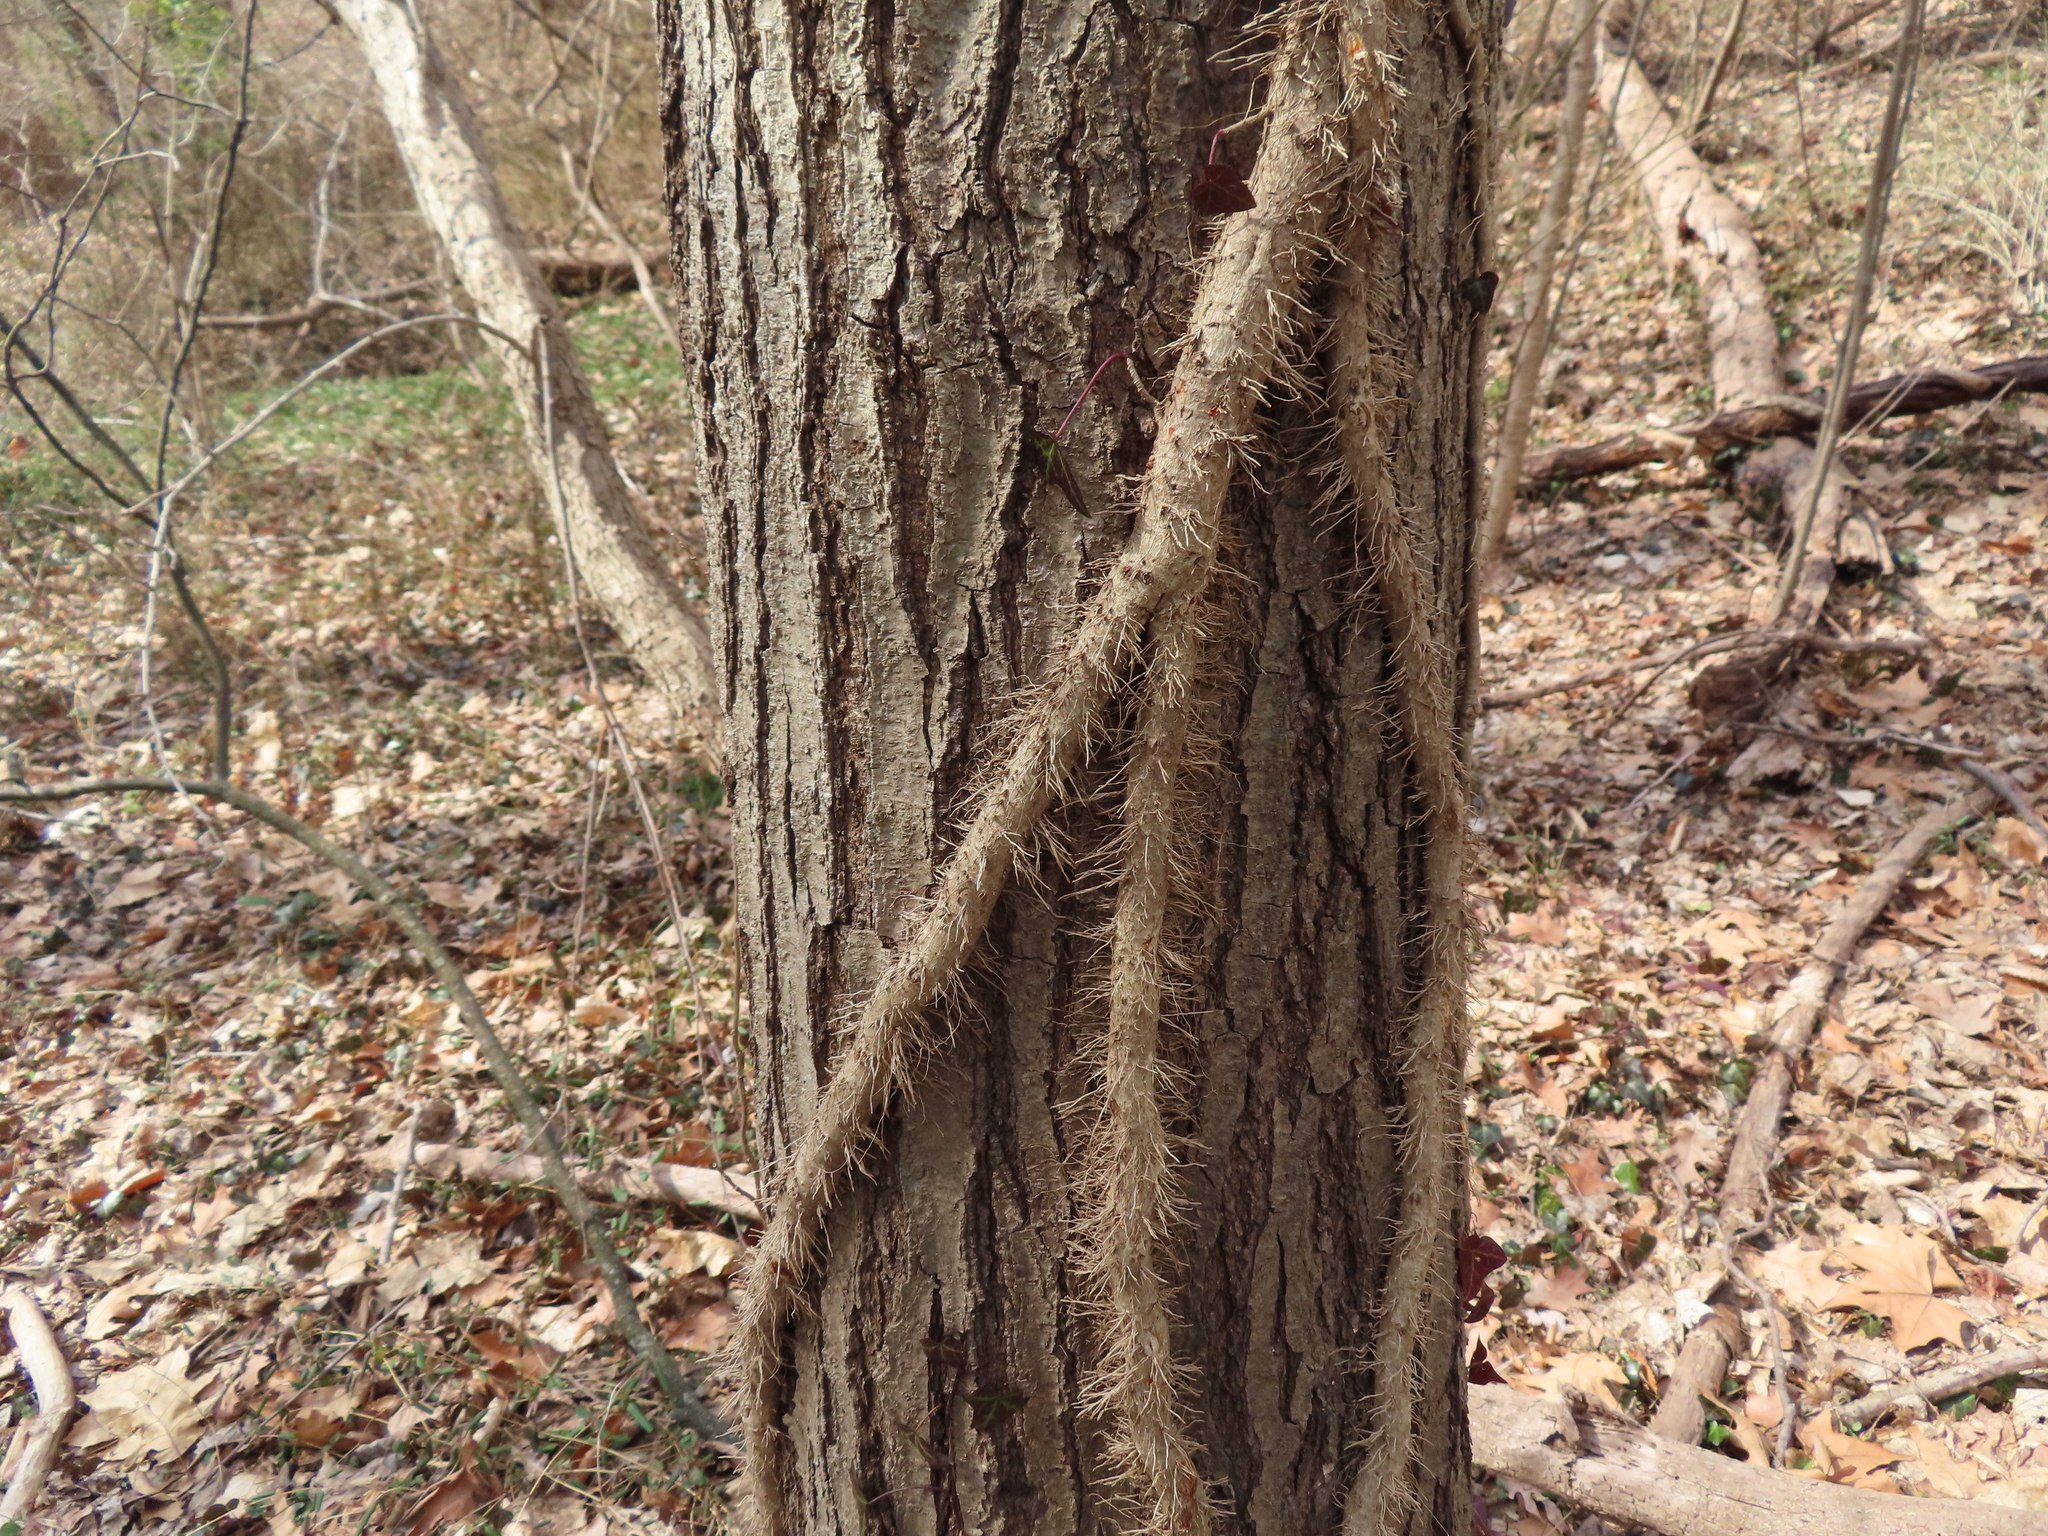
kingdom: Plantae
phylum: Tracheophyta
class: Magnoliopsida
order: Sapindales
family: Anacardiaceae
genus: Toxicodendron
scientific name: Toxicodendron radicans
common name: Poison ivy
